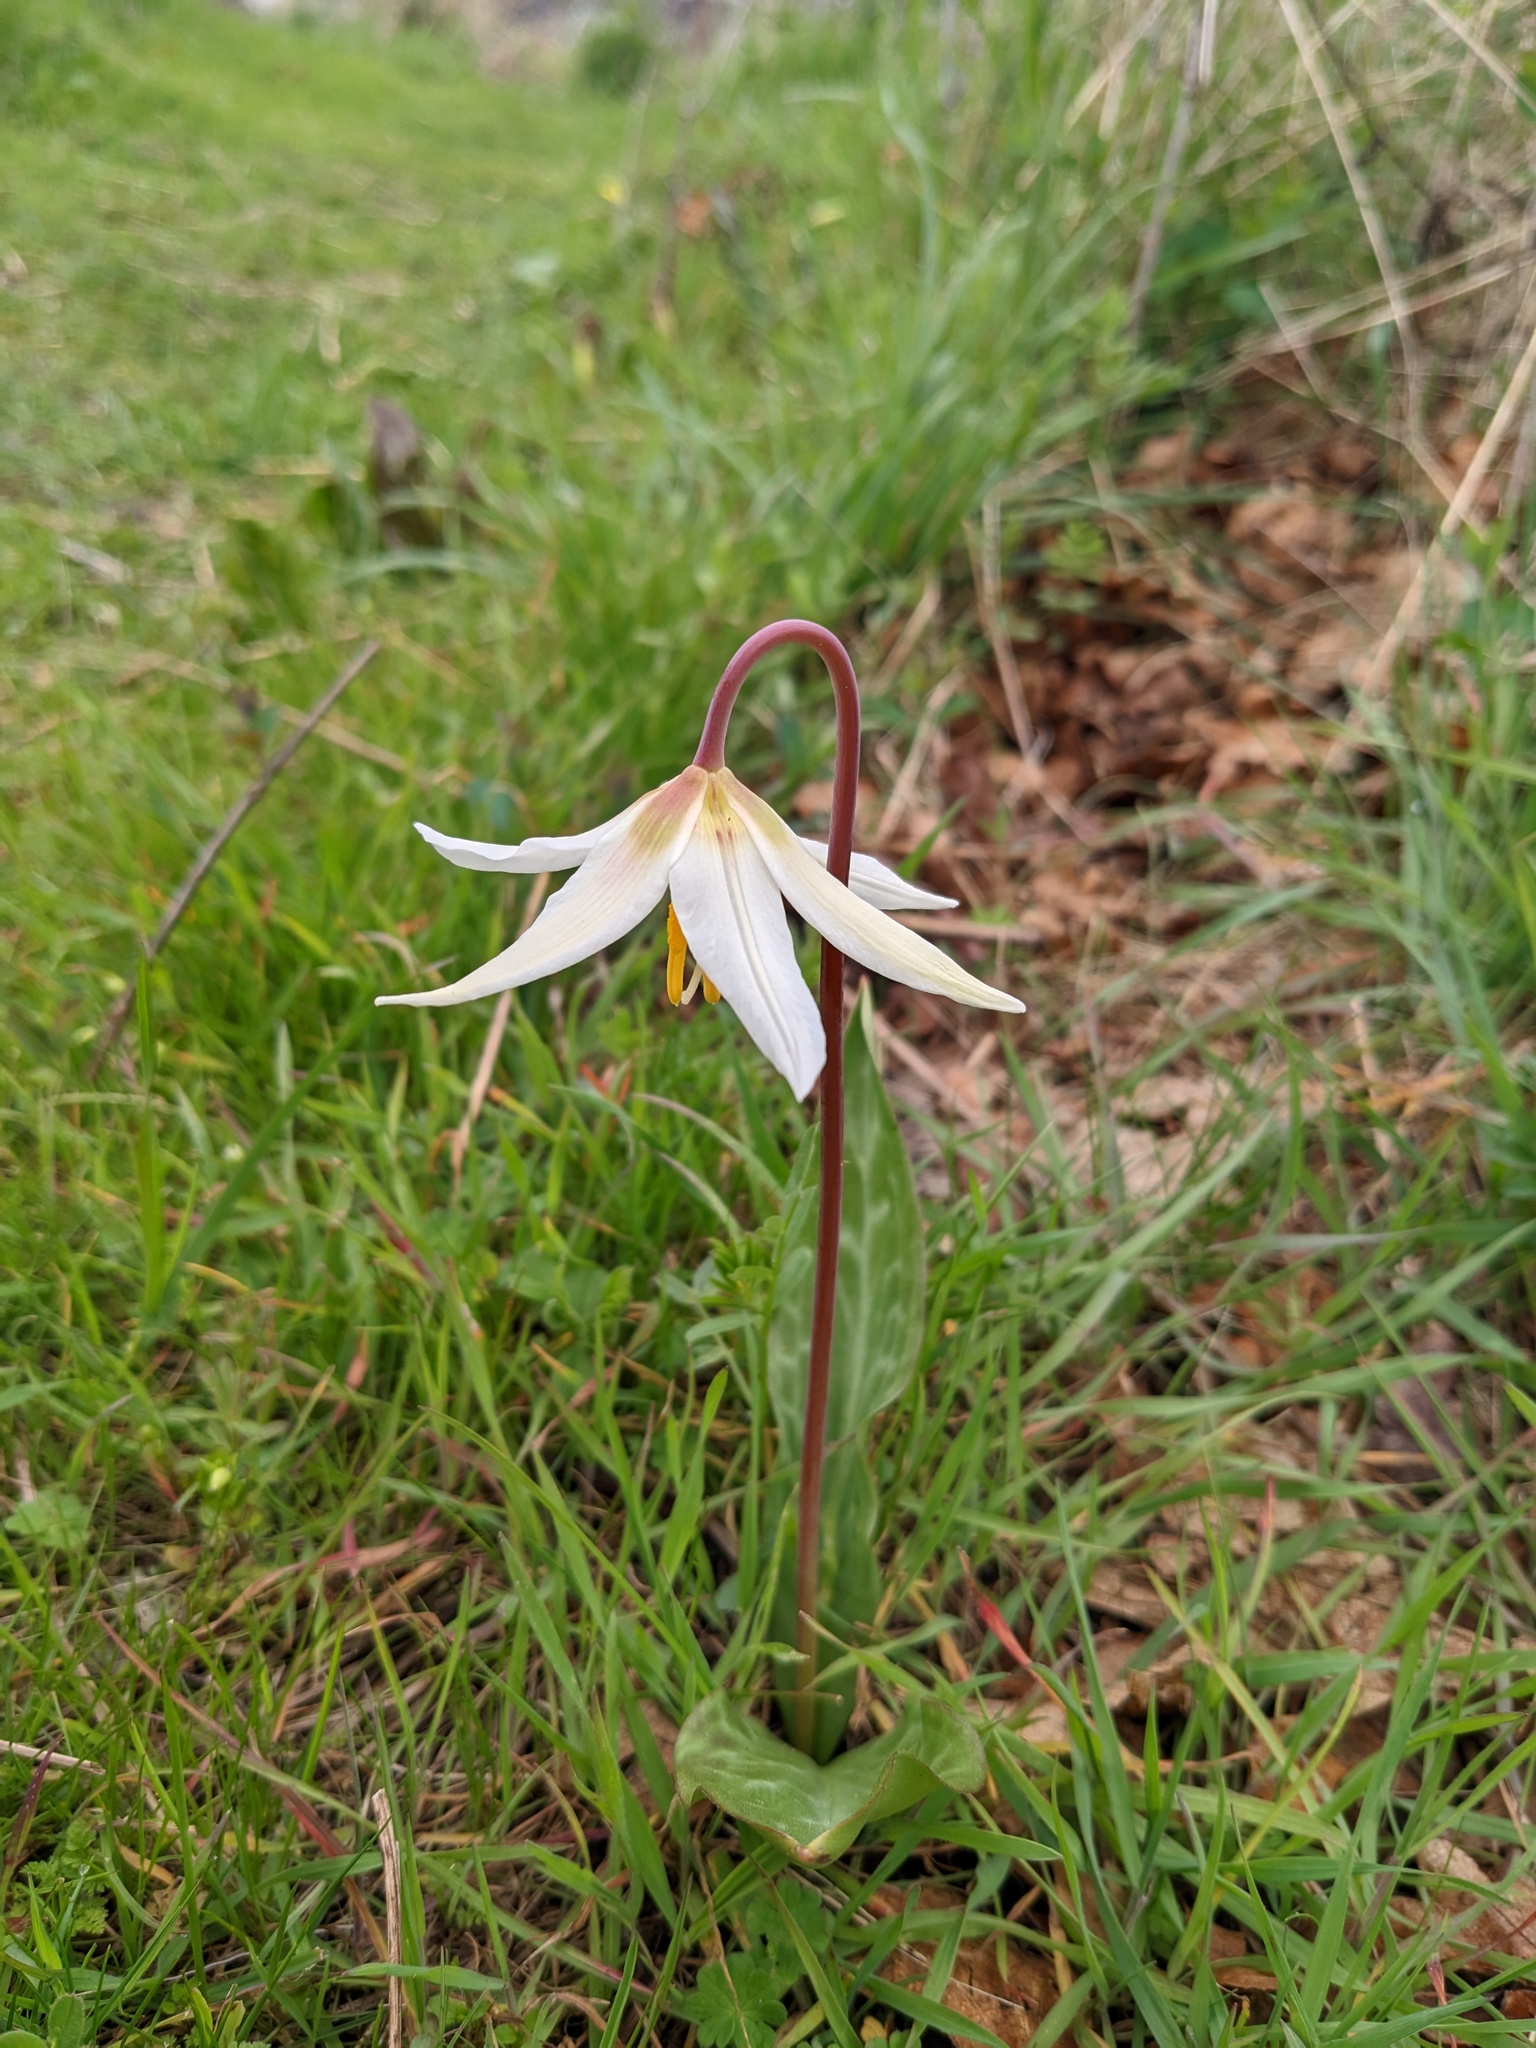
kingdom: Plantae
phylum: Tracheophyta
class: Liliopsida
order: Liliales
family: Liliaceae
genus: Erythronium
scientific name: Erythronium oregonum
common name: Giant adder's-tongue
